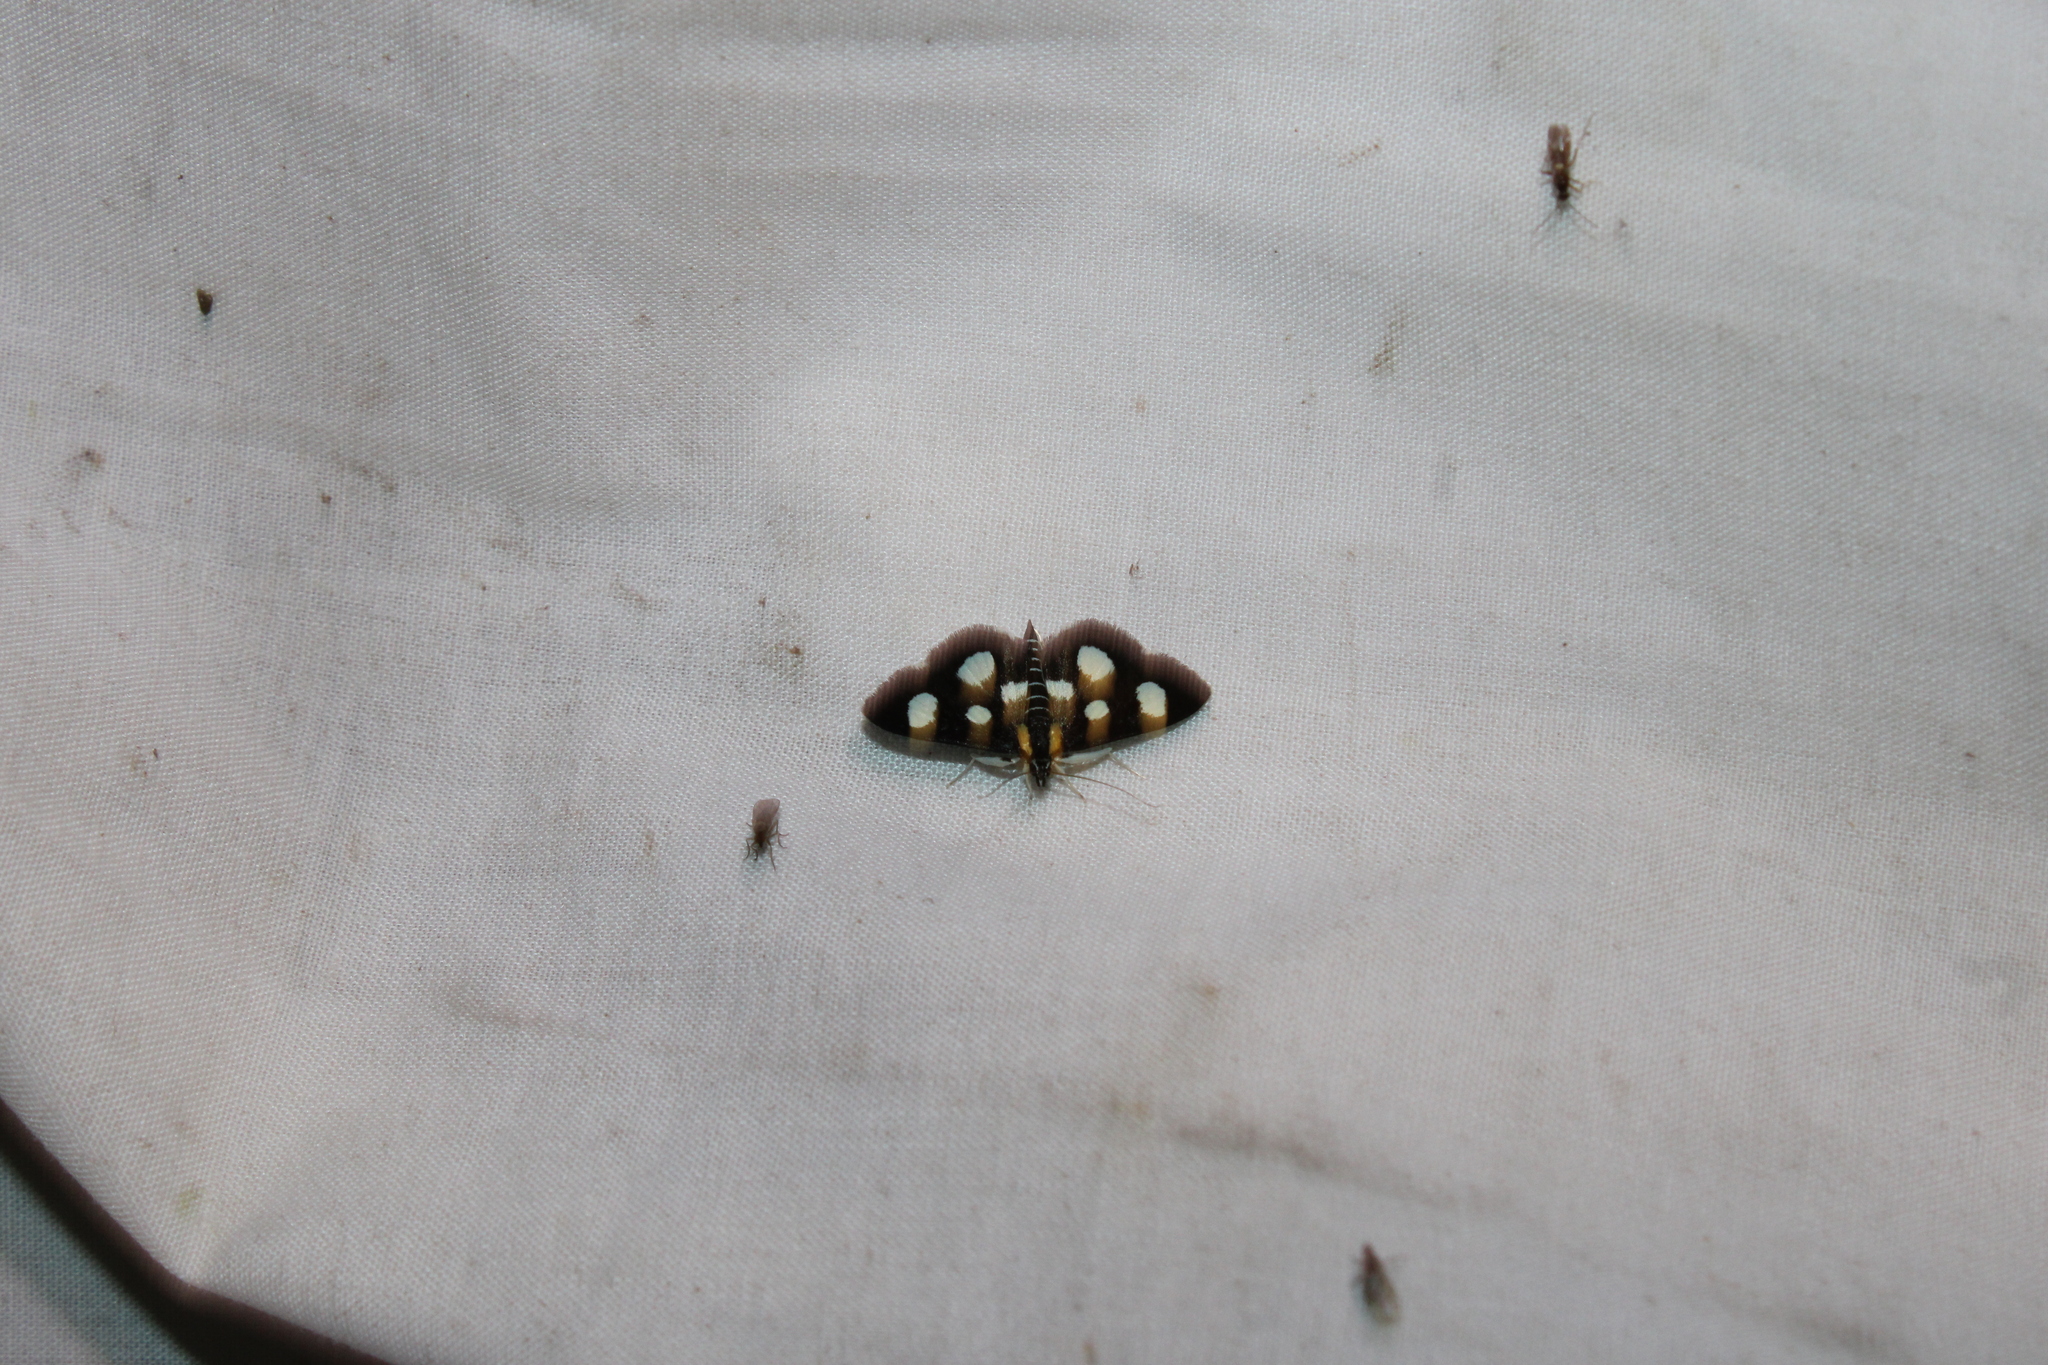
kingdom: Animalia
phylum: Arthropoda
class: Insecta
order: Lepidoptera
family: Crambidae
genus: Anania
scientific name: Anania funebris
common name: White-spotted sable moth
